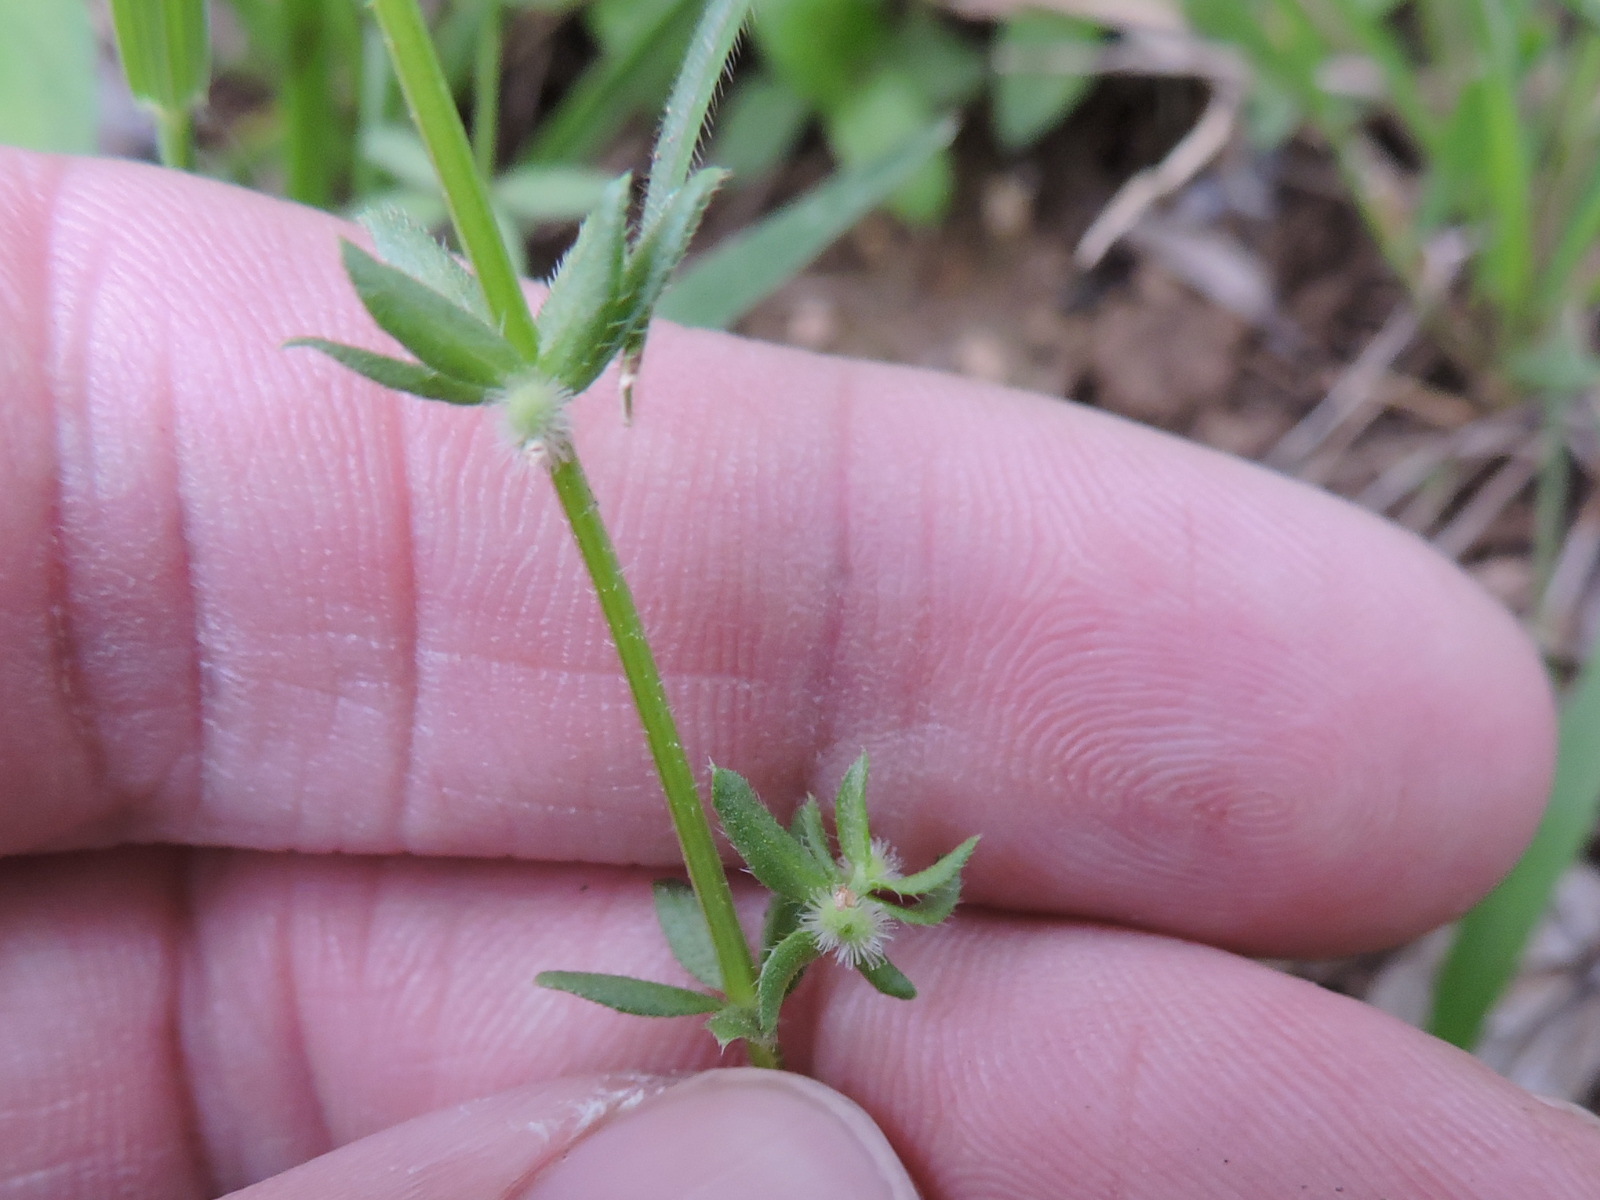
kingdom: Plantae
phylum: Tracheophyta
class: Magnoliopsida
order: Gentianales
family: Rubiaceae
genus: Galium
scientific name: Galium virgatum
